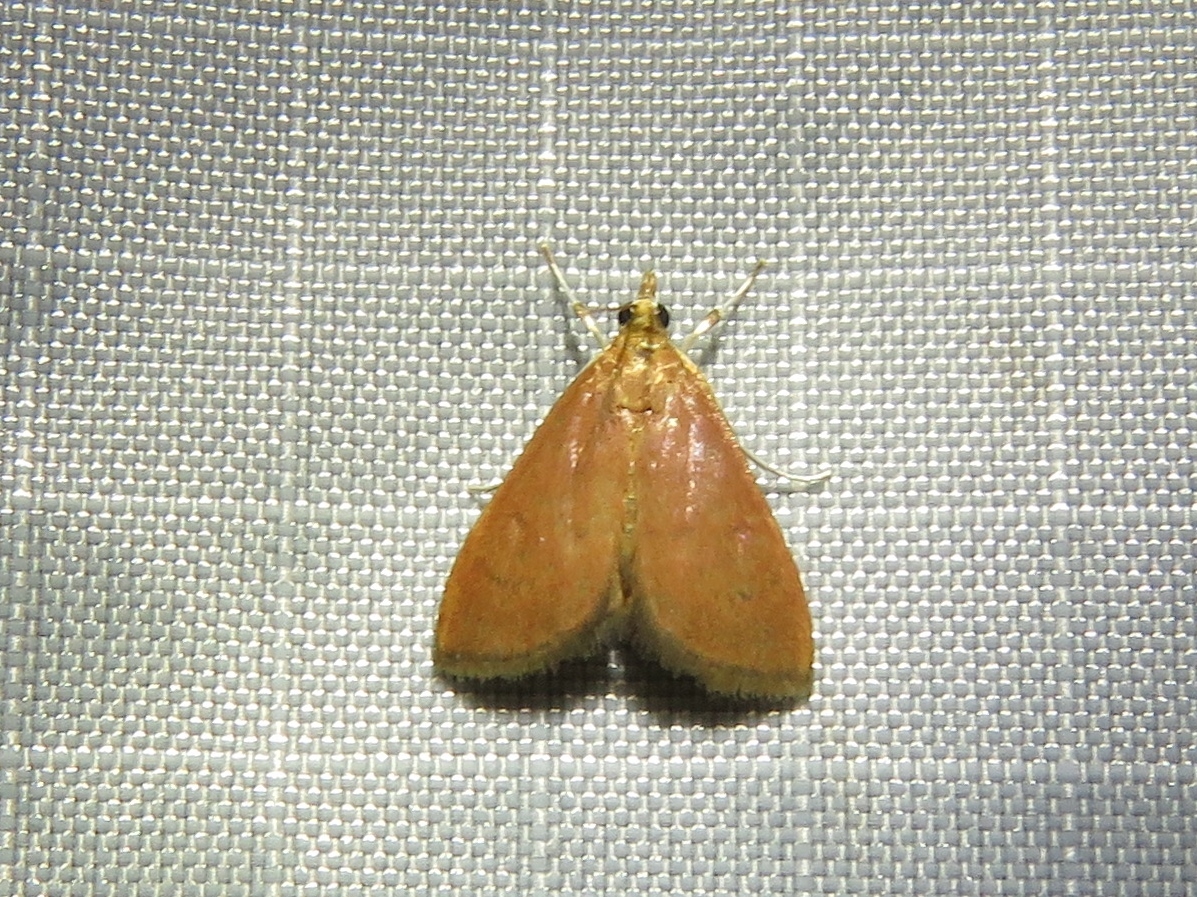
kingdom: Animalia
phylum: Arthropoda
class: Insecta
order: Lepidoptera
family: Crambidae
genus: Oenobotys
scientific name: Oenobotys vinotinctalis
